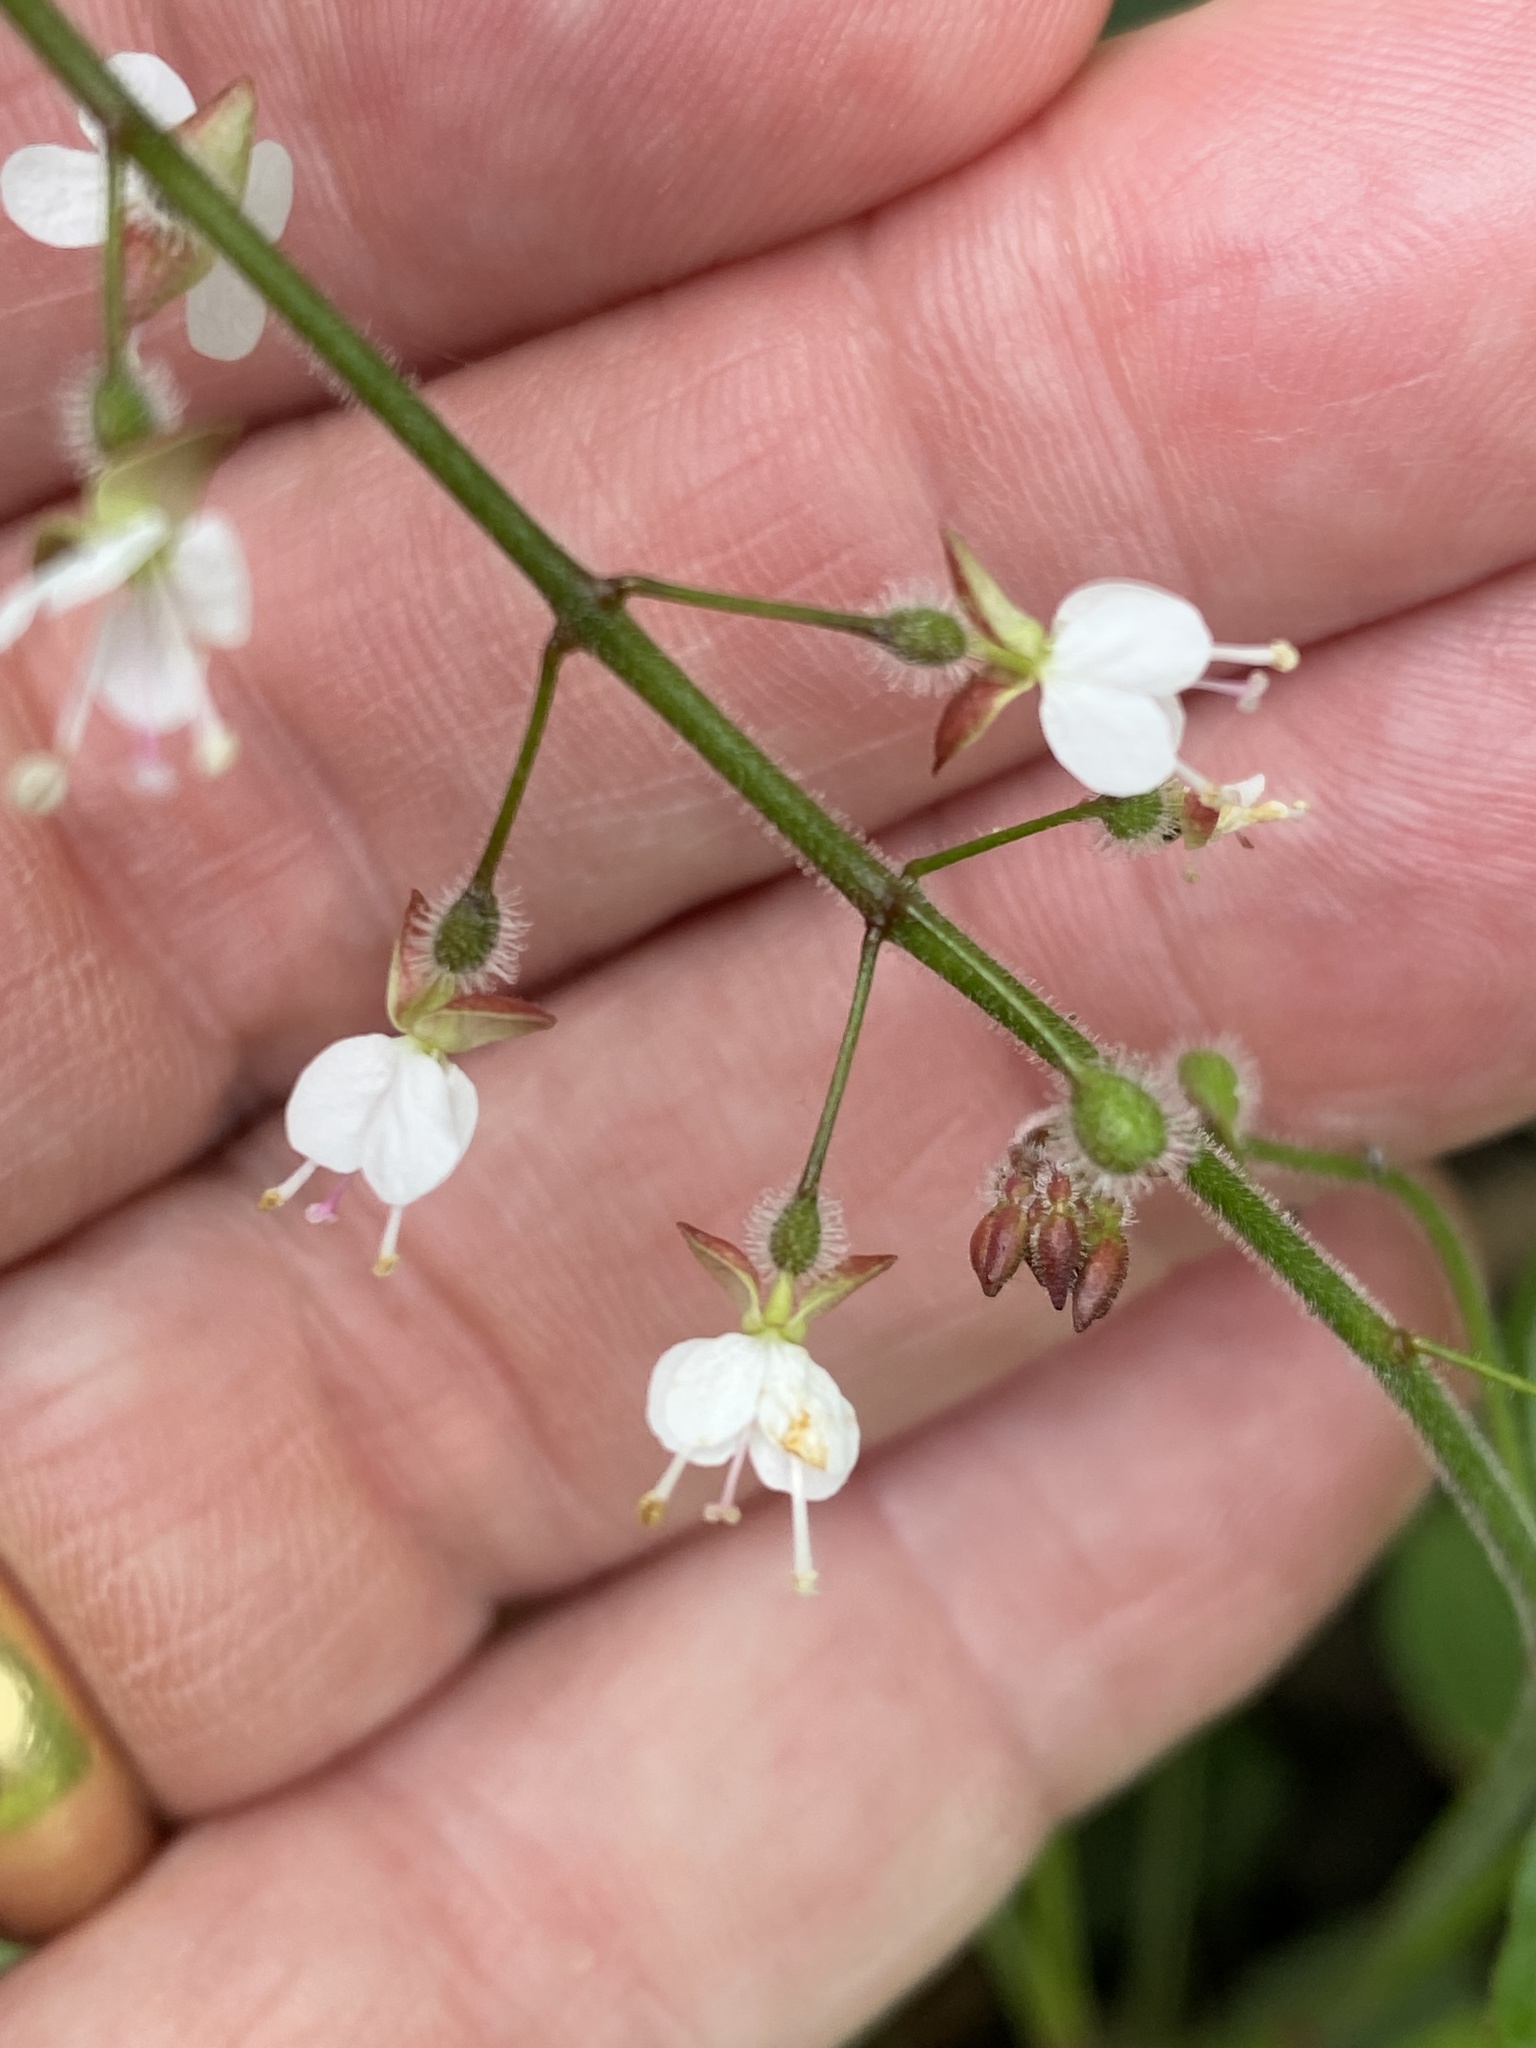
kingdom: Plantae
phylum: Tracheophyta
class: Magnoliopsida
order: Myrtales
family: Onagraceae
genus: Circaea
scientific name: Circaea lutetiana
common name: Enchanter's-nightshade
